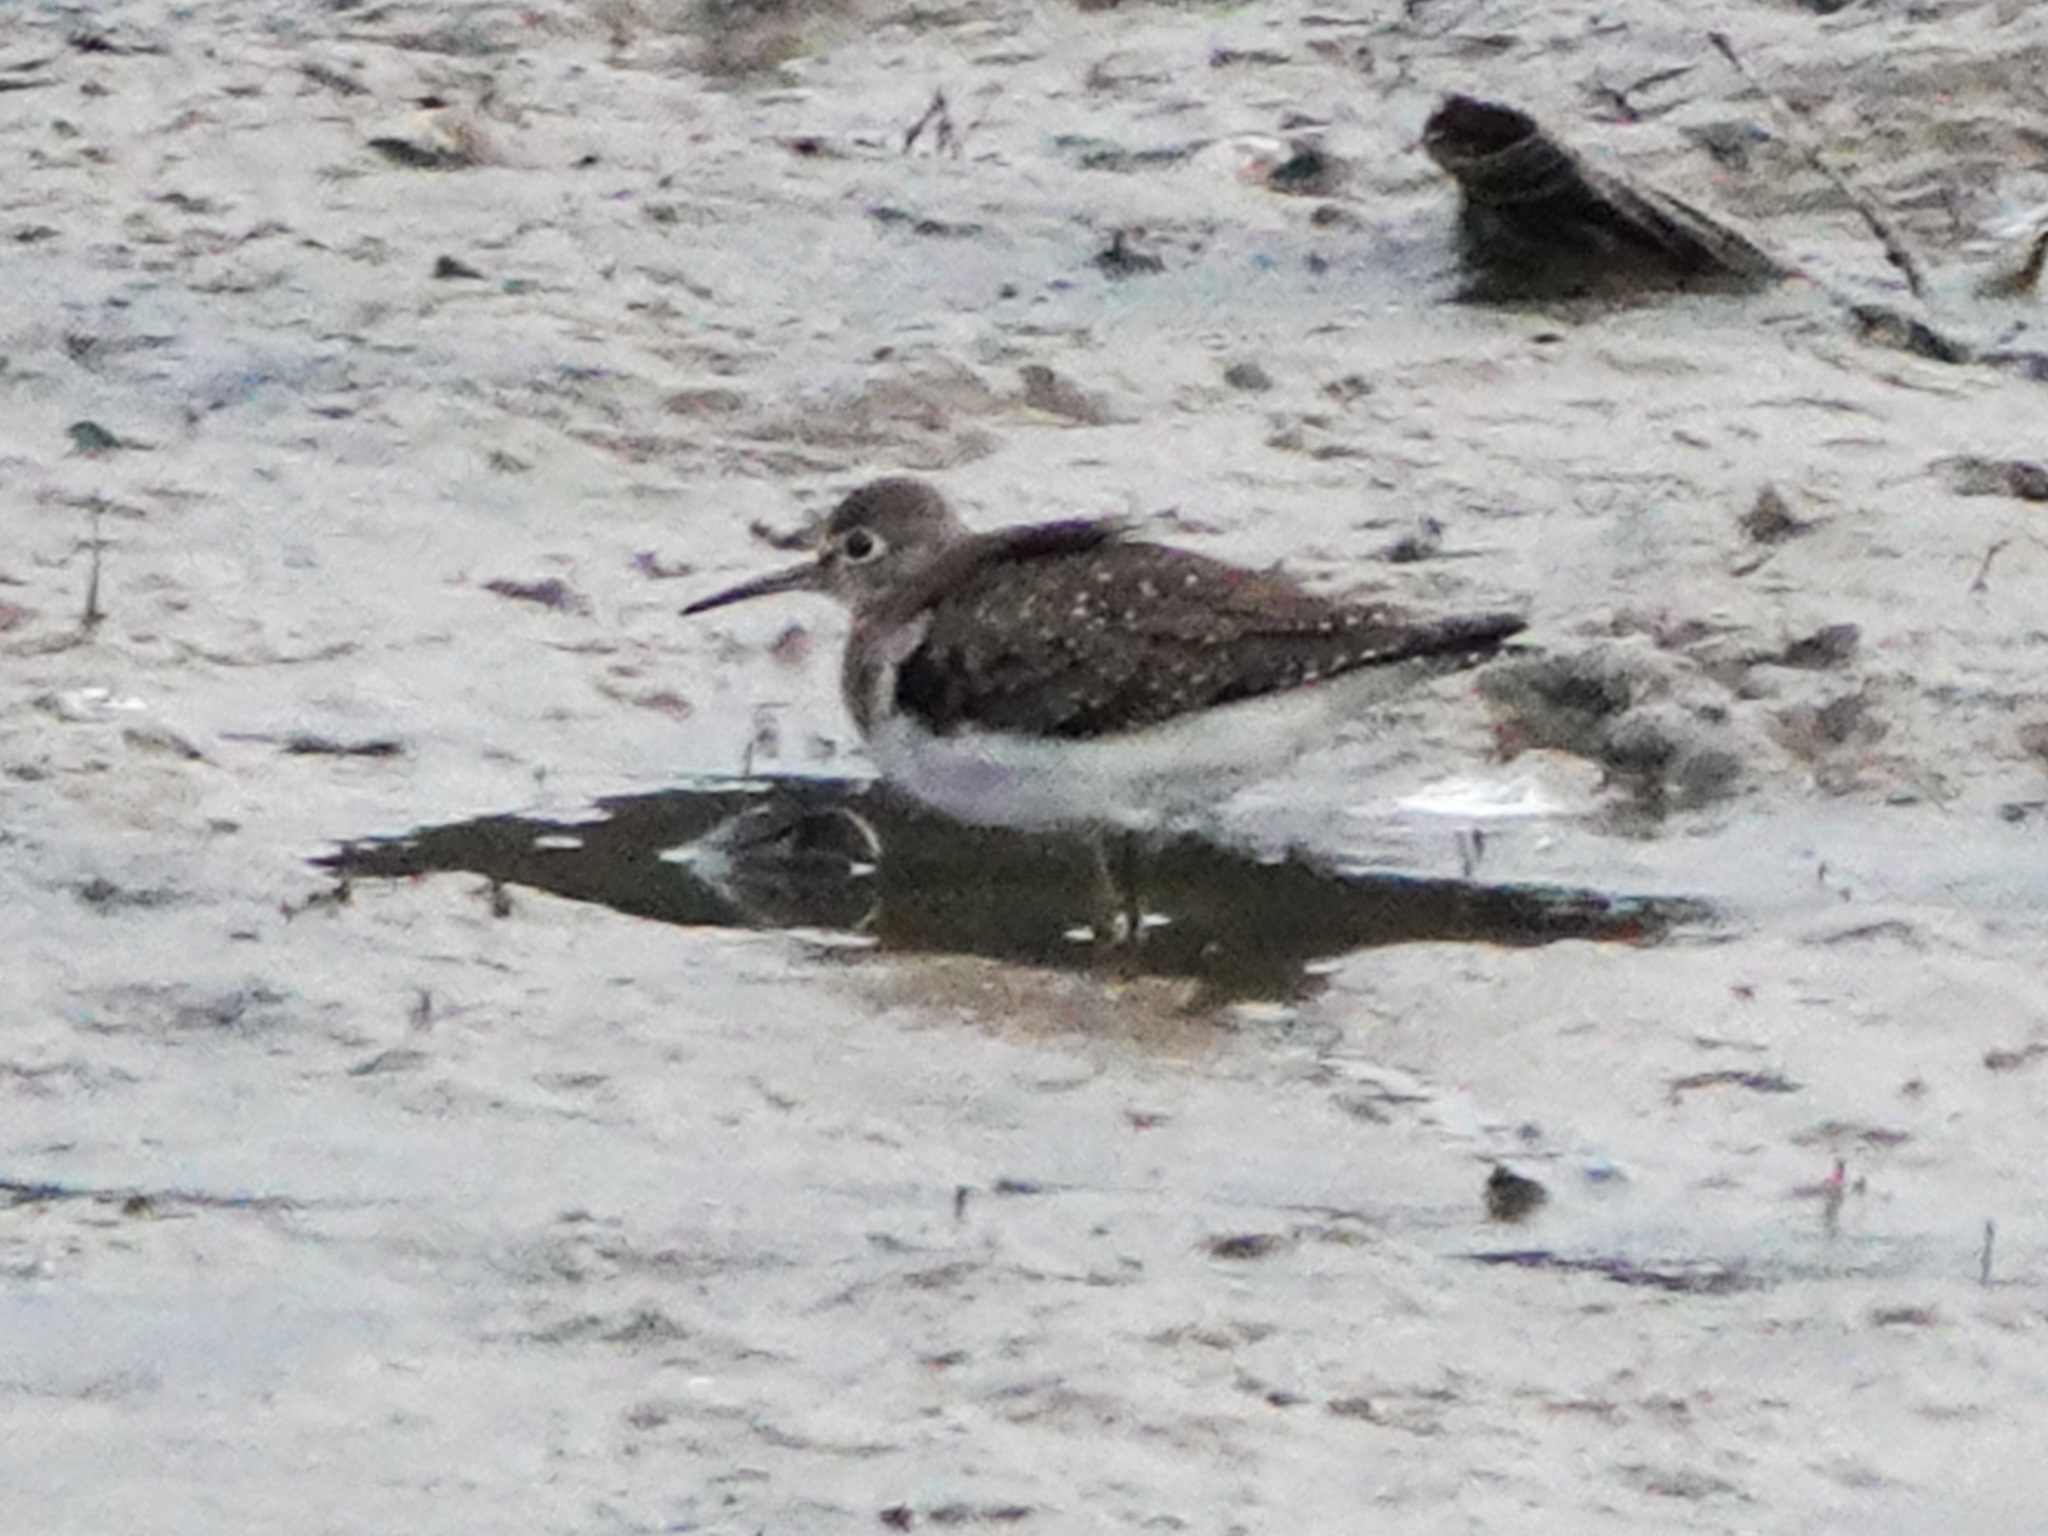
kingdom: Animalia
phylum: Chordata
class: Aves
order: Charadriiformes
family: Scolopacidae
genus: Tringa
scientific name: Tringa solitaria
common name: Solitary sandpiper
